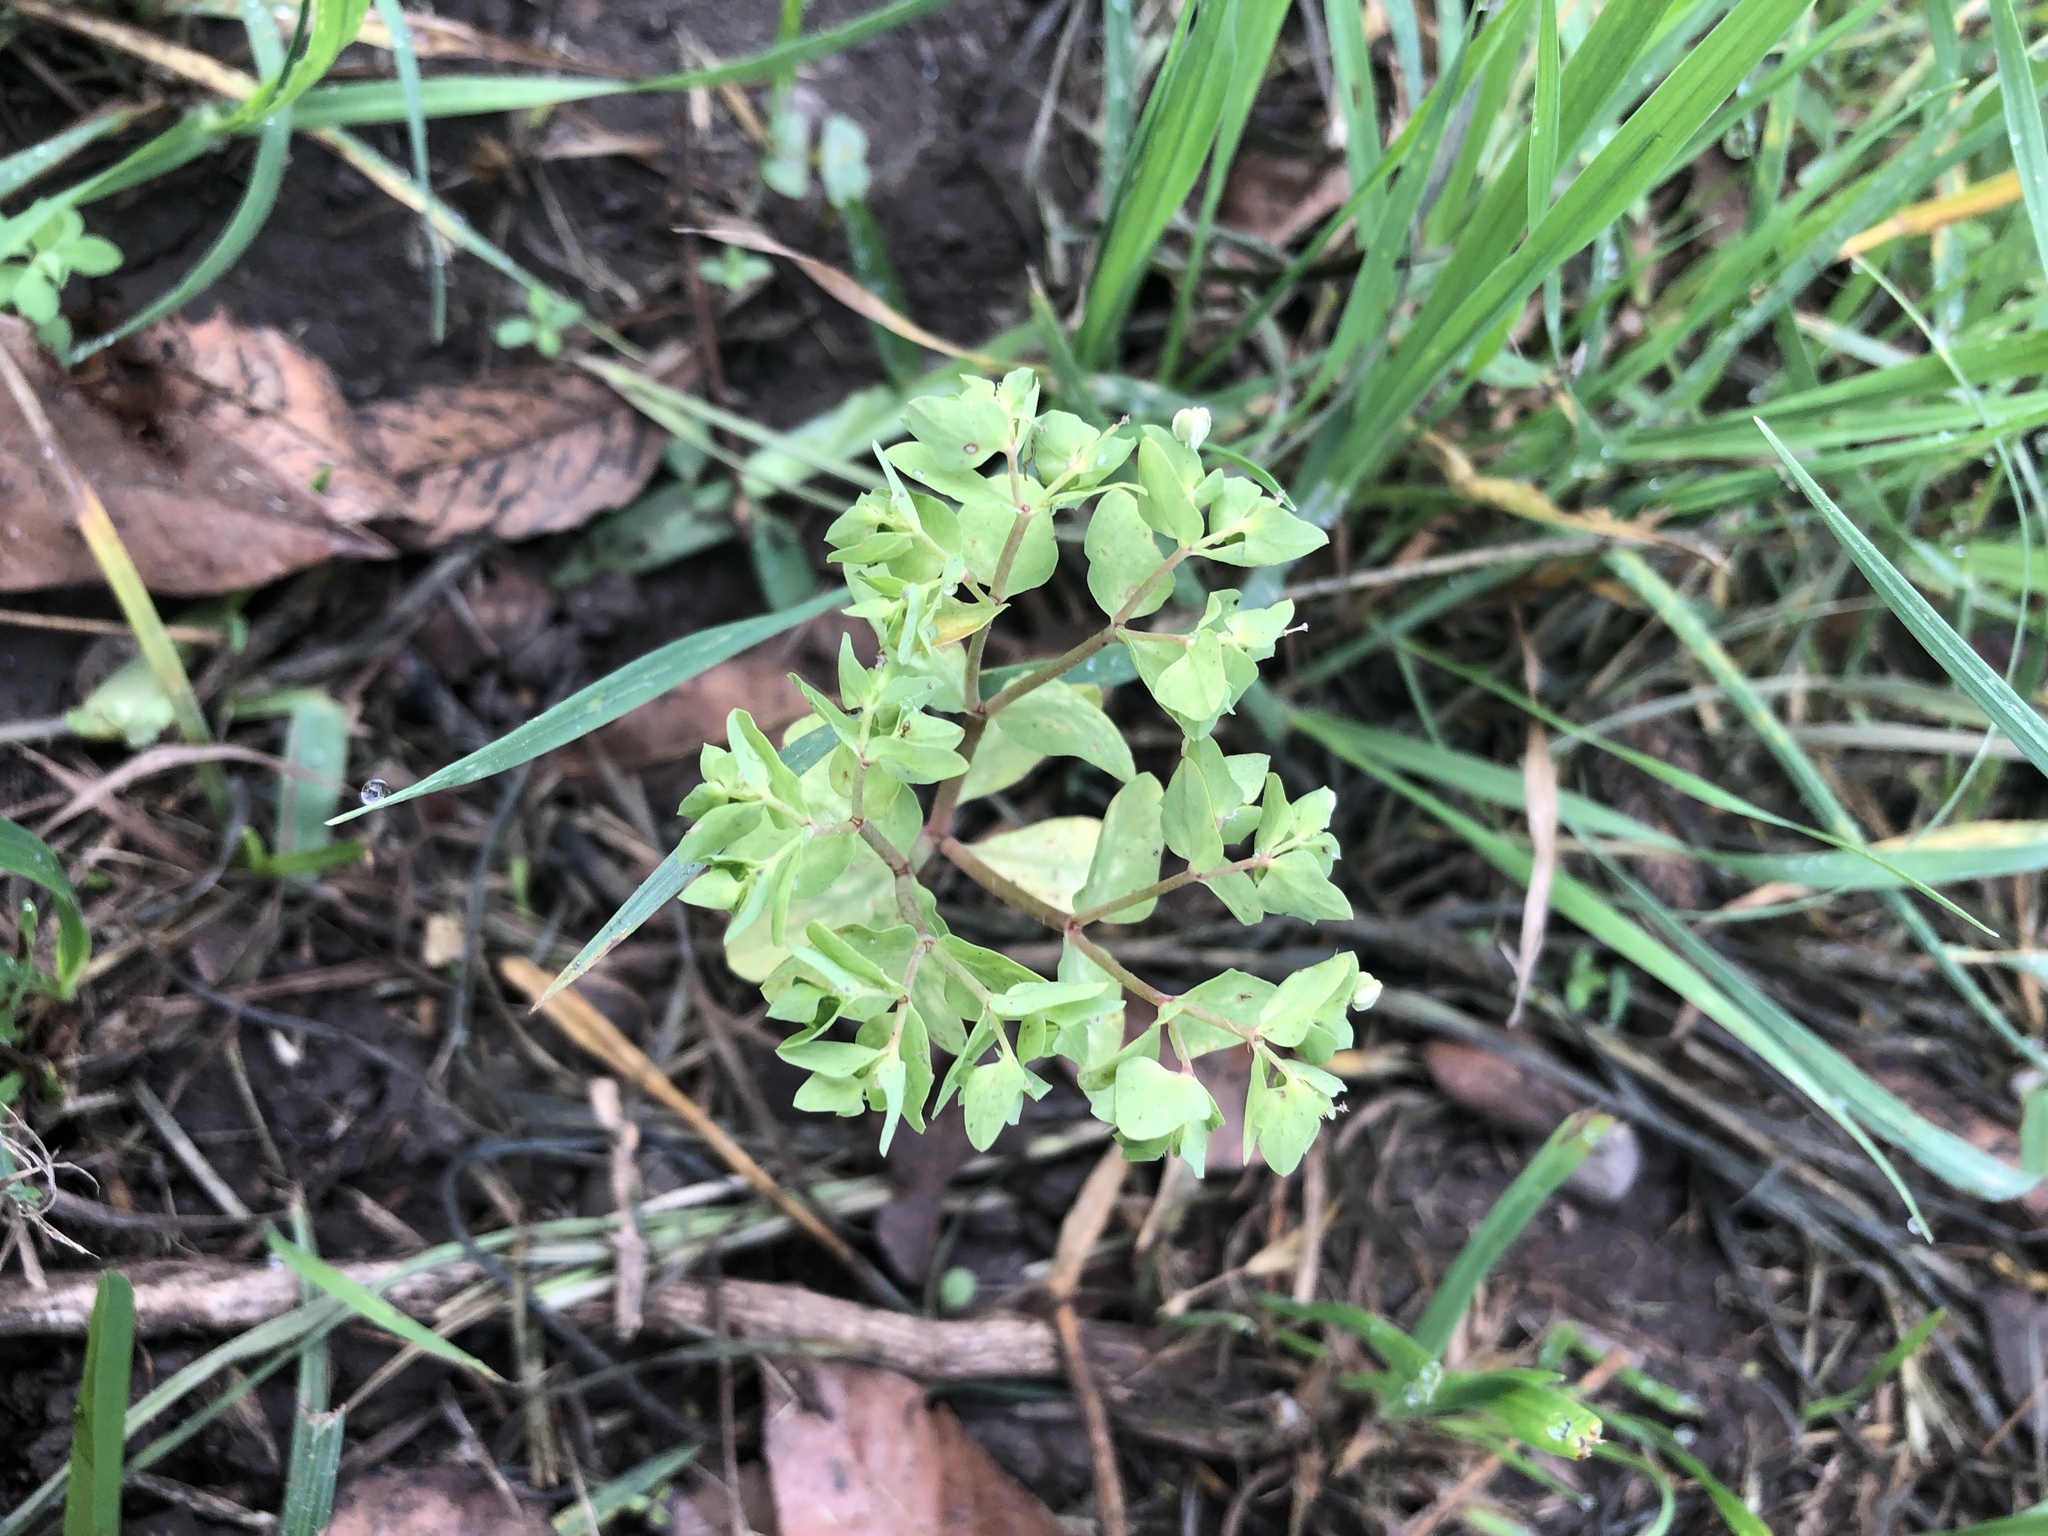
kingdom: Plantae
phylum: Tracheophyta
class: Magnoliopsida
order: Malpighiales
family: Euphorbiaceae
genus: Euphorbia
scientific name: Euphorbia peplus
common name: Petty spurge
